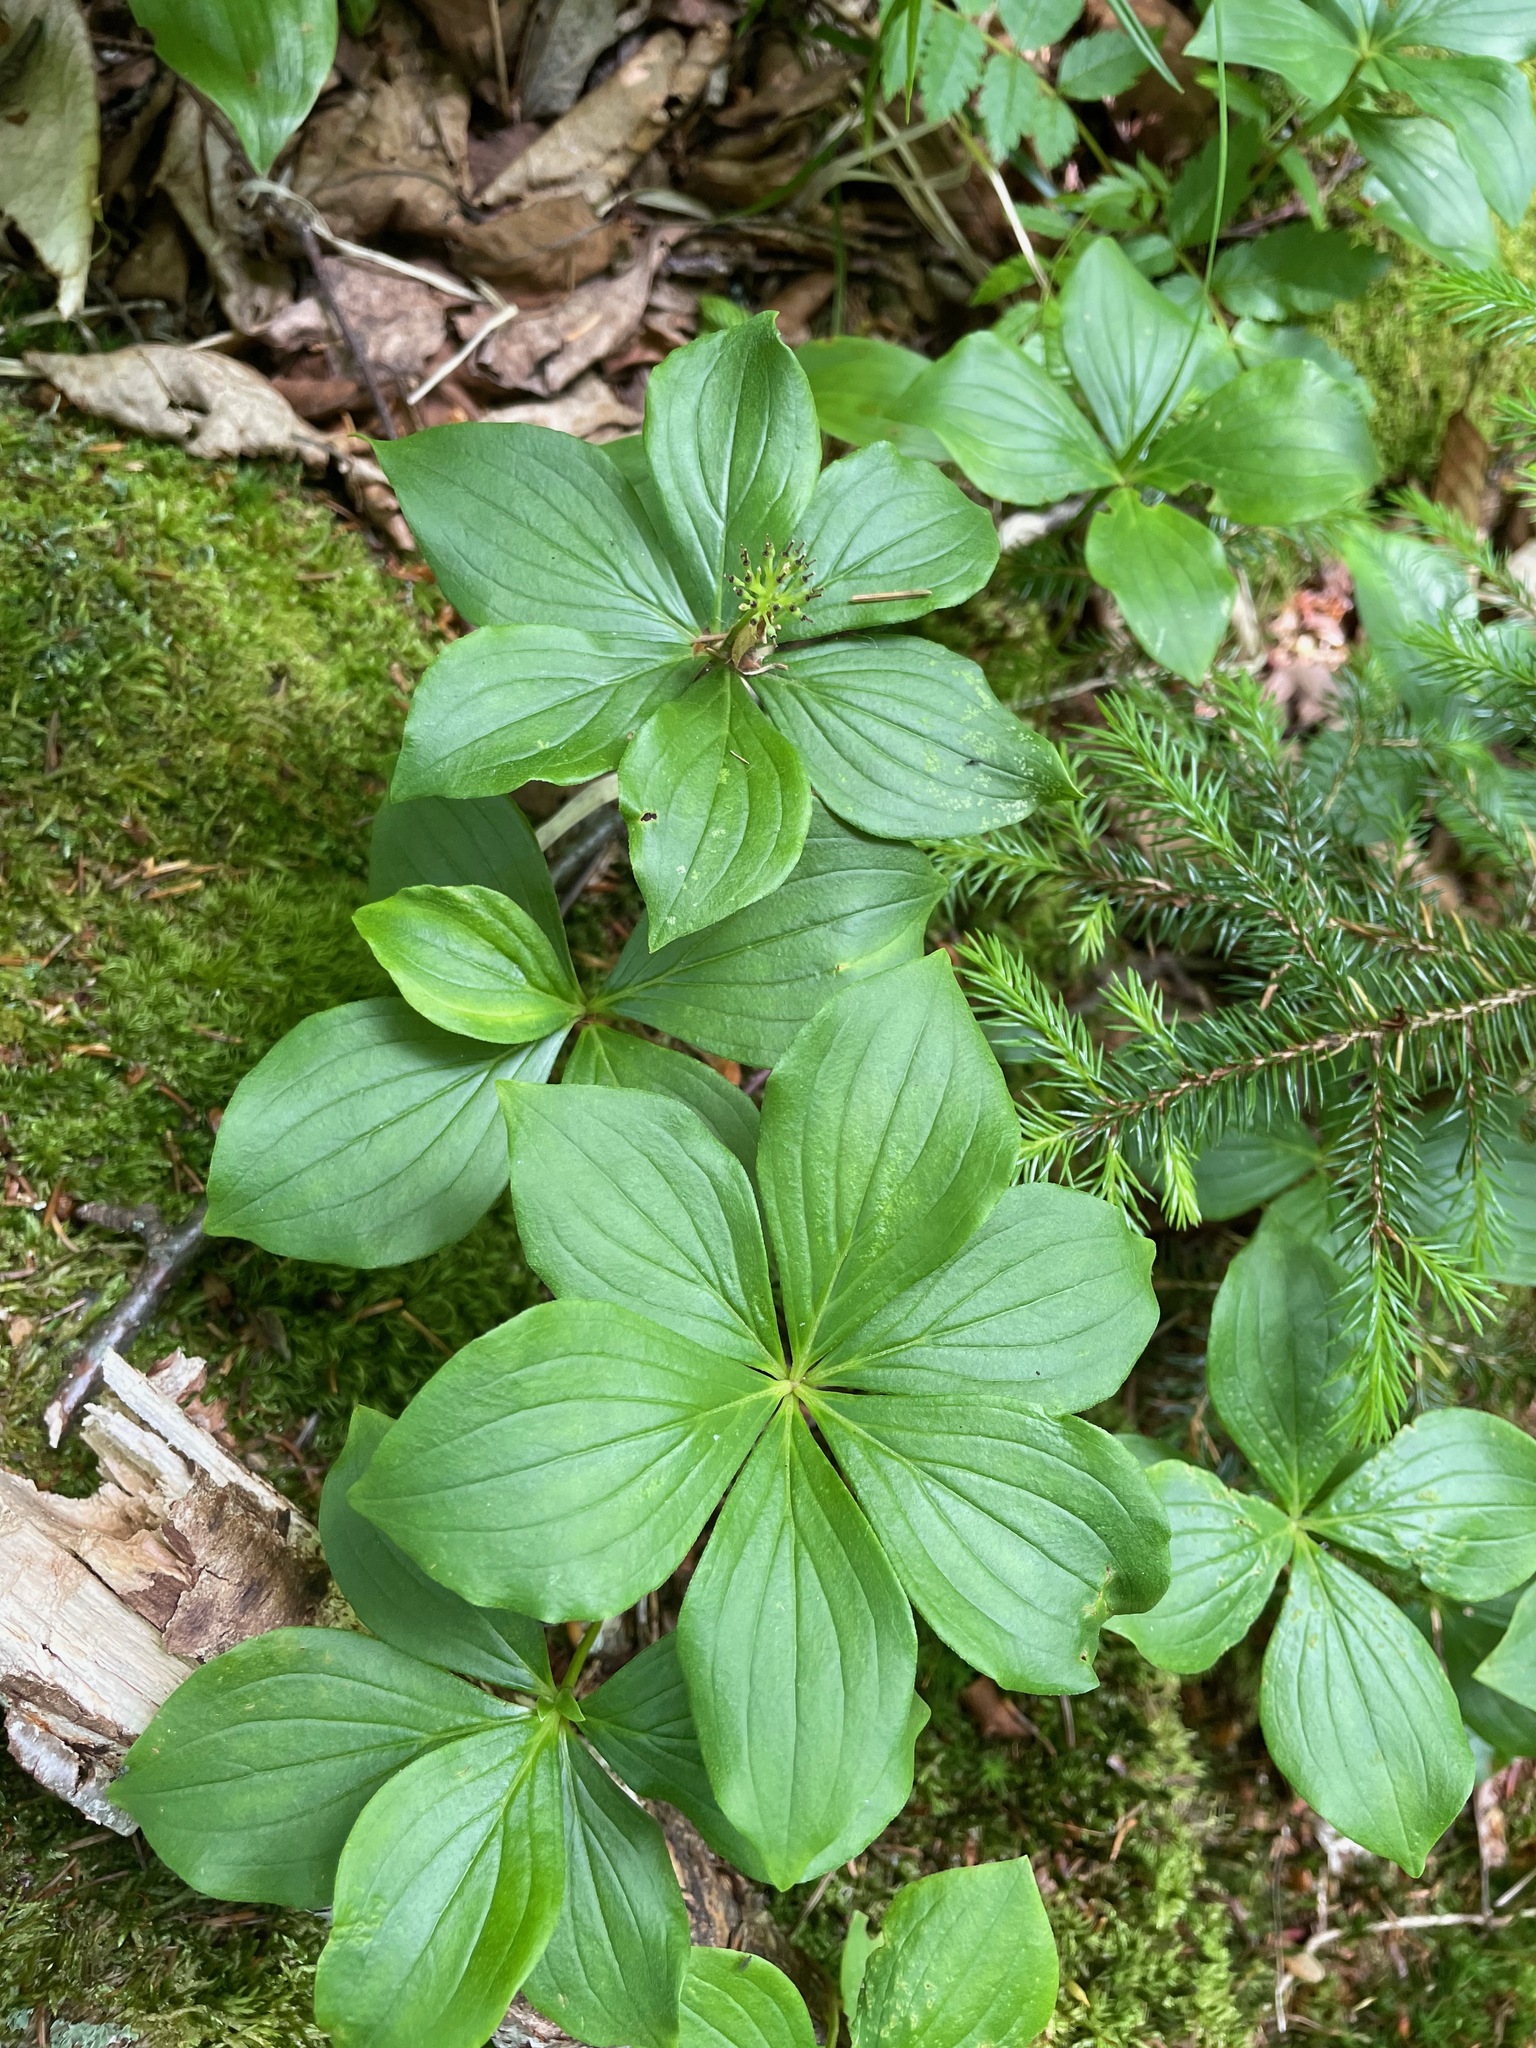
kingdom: Plantae
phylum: Tracheophyta
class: Magnoliopsida
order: Cornales
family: Cornaceae
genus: Cornus
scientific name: Cornus canadensis
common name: Creeping dogwood
